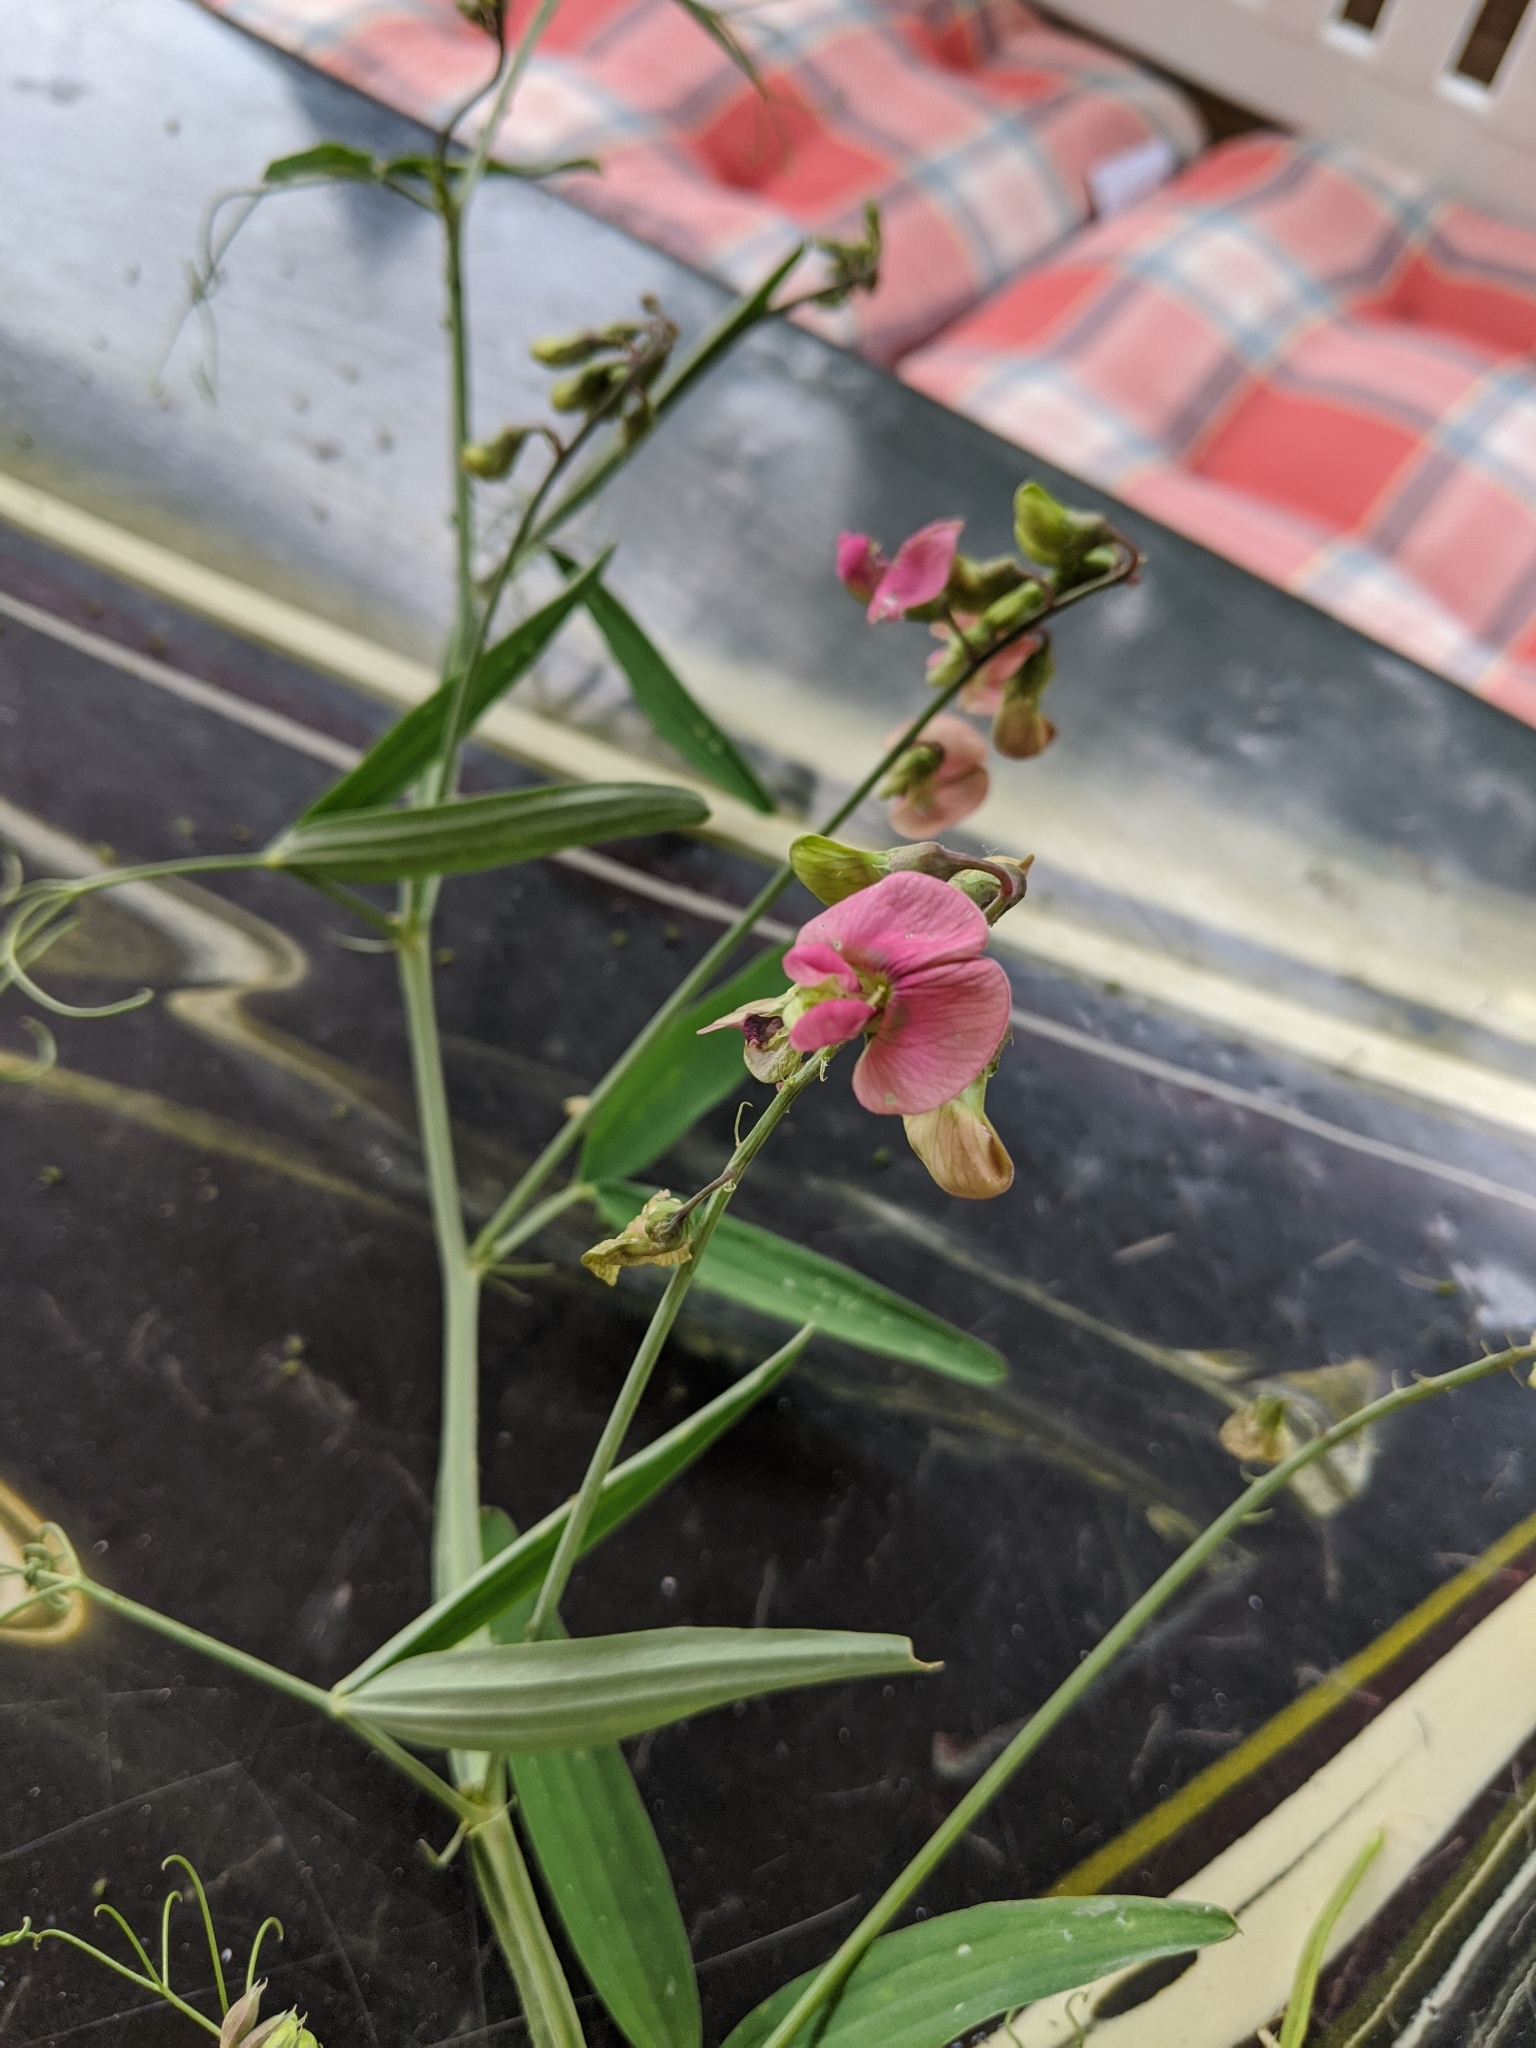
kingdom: Plantae
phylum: Tracheophyta
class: Magnoliopsida
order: Fabales
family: Fabaceae
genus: Lathyrus
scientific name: Lathyrus sylvestris
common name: Flat pea
